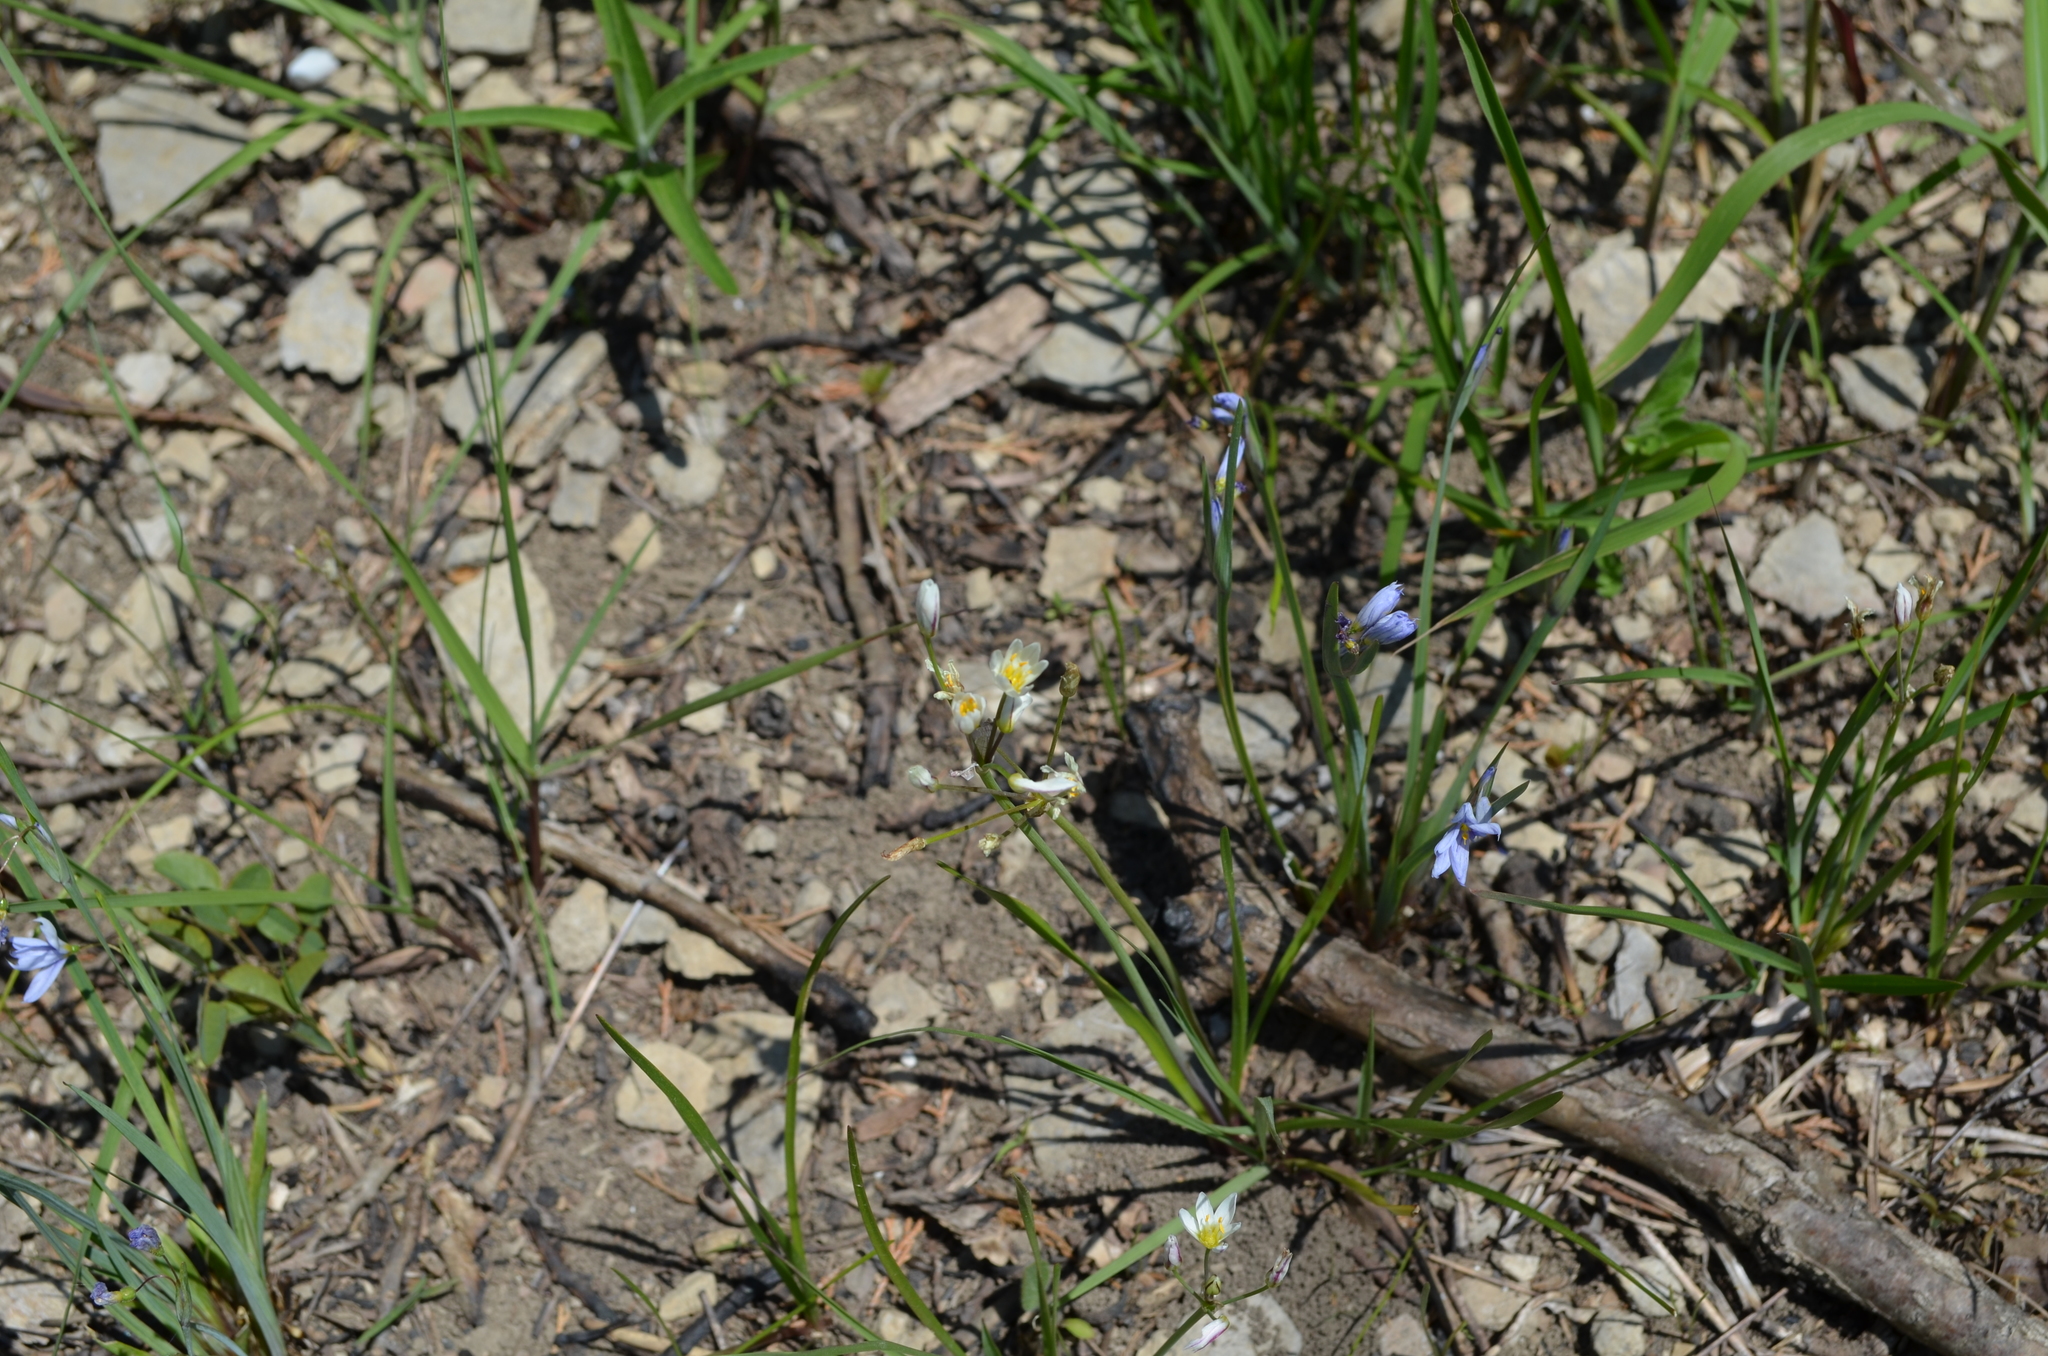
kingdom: Plantae
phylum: Tracheophyta
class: Liliopsida
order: Asparagales
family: Amaryllidaceae
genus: Nothoscordum
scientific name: Nothoscordum bivalve
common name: Crow-poison
